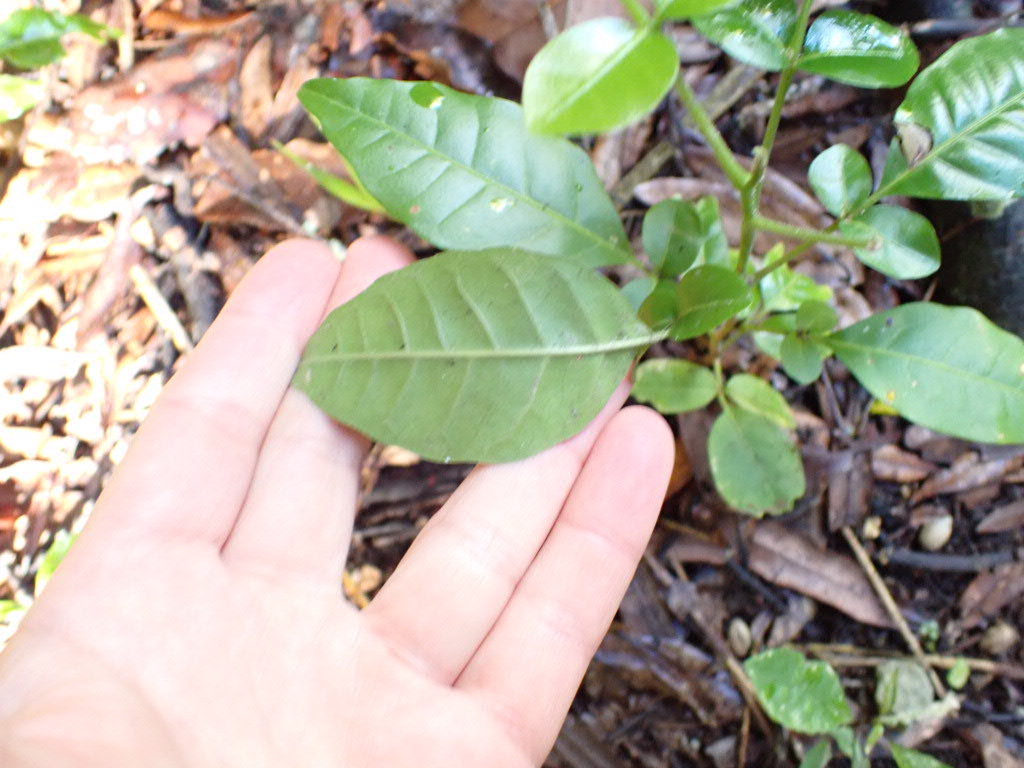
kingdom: Plantae
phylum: Tracheophyta
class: Magnoliopsida
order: Sapindales
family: Meliaceae
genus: Didymocheton
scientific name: Didymocheton spectabilis
